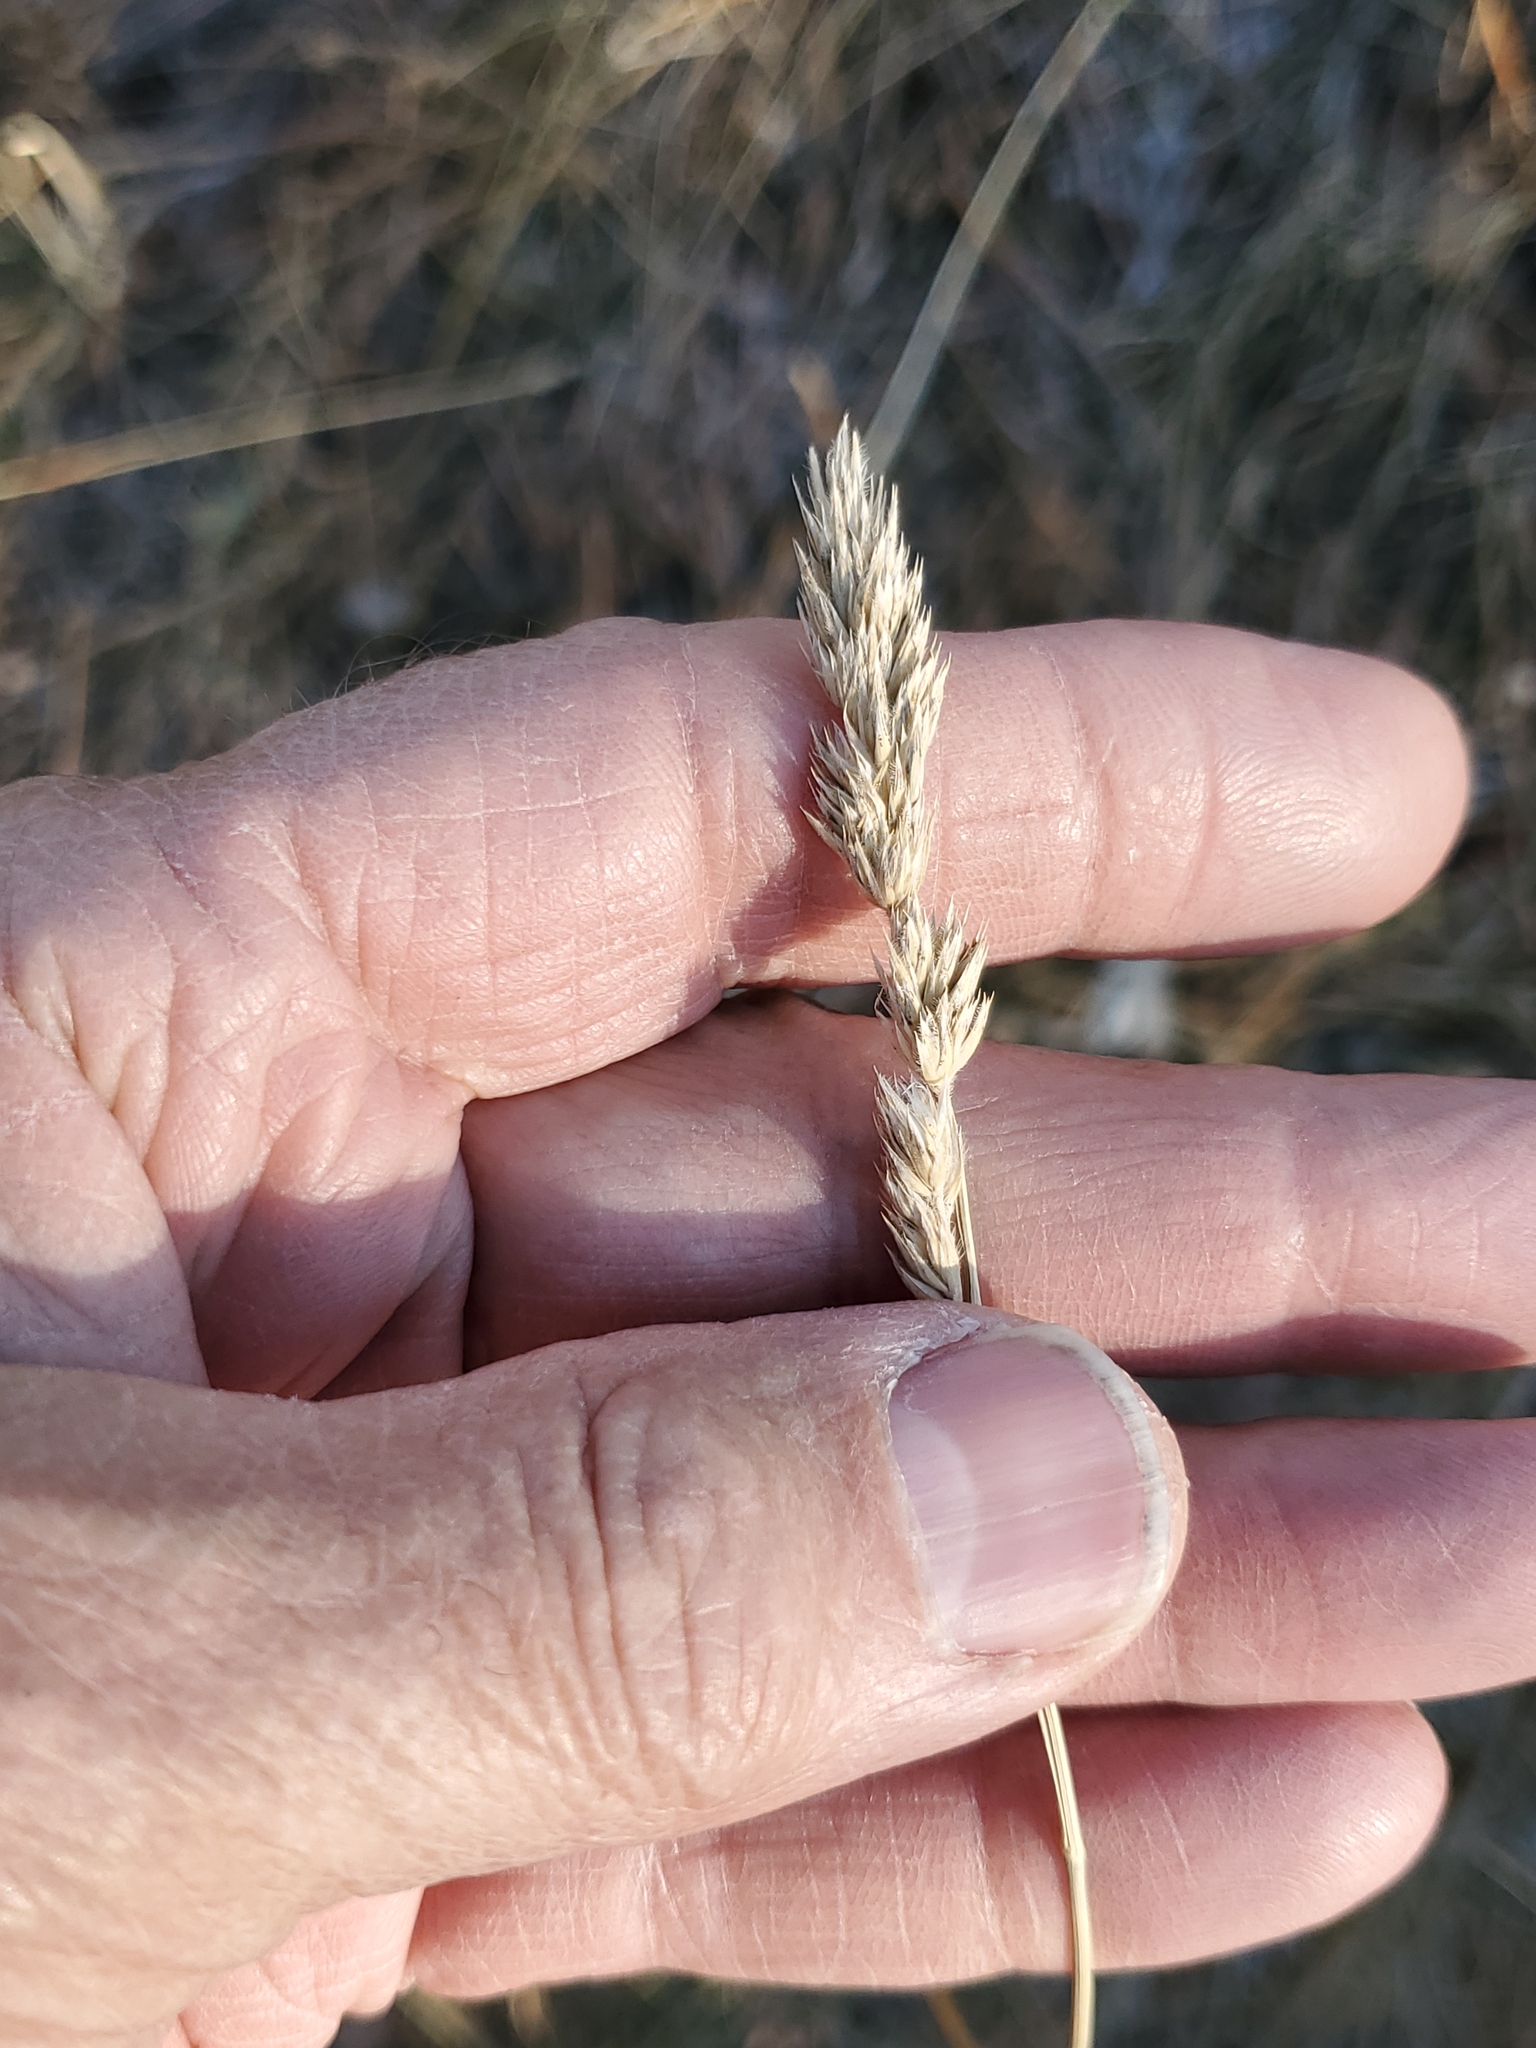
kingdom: Plantae
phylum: Tracheophyta
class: Liliopsida
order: Poales
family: Poaceae
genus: Dactylis
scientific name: Dactylis glomerata
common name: Orchardgrass
